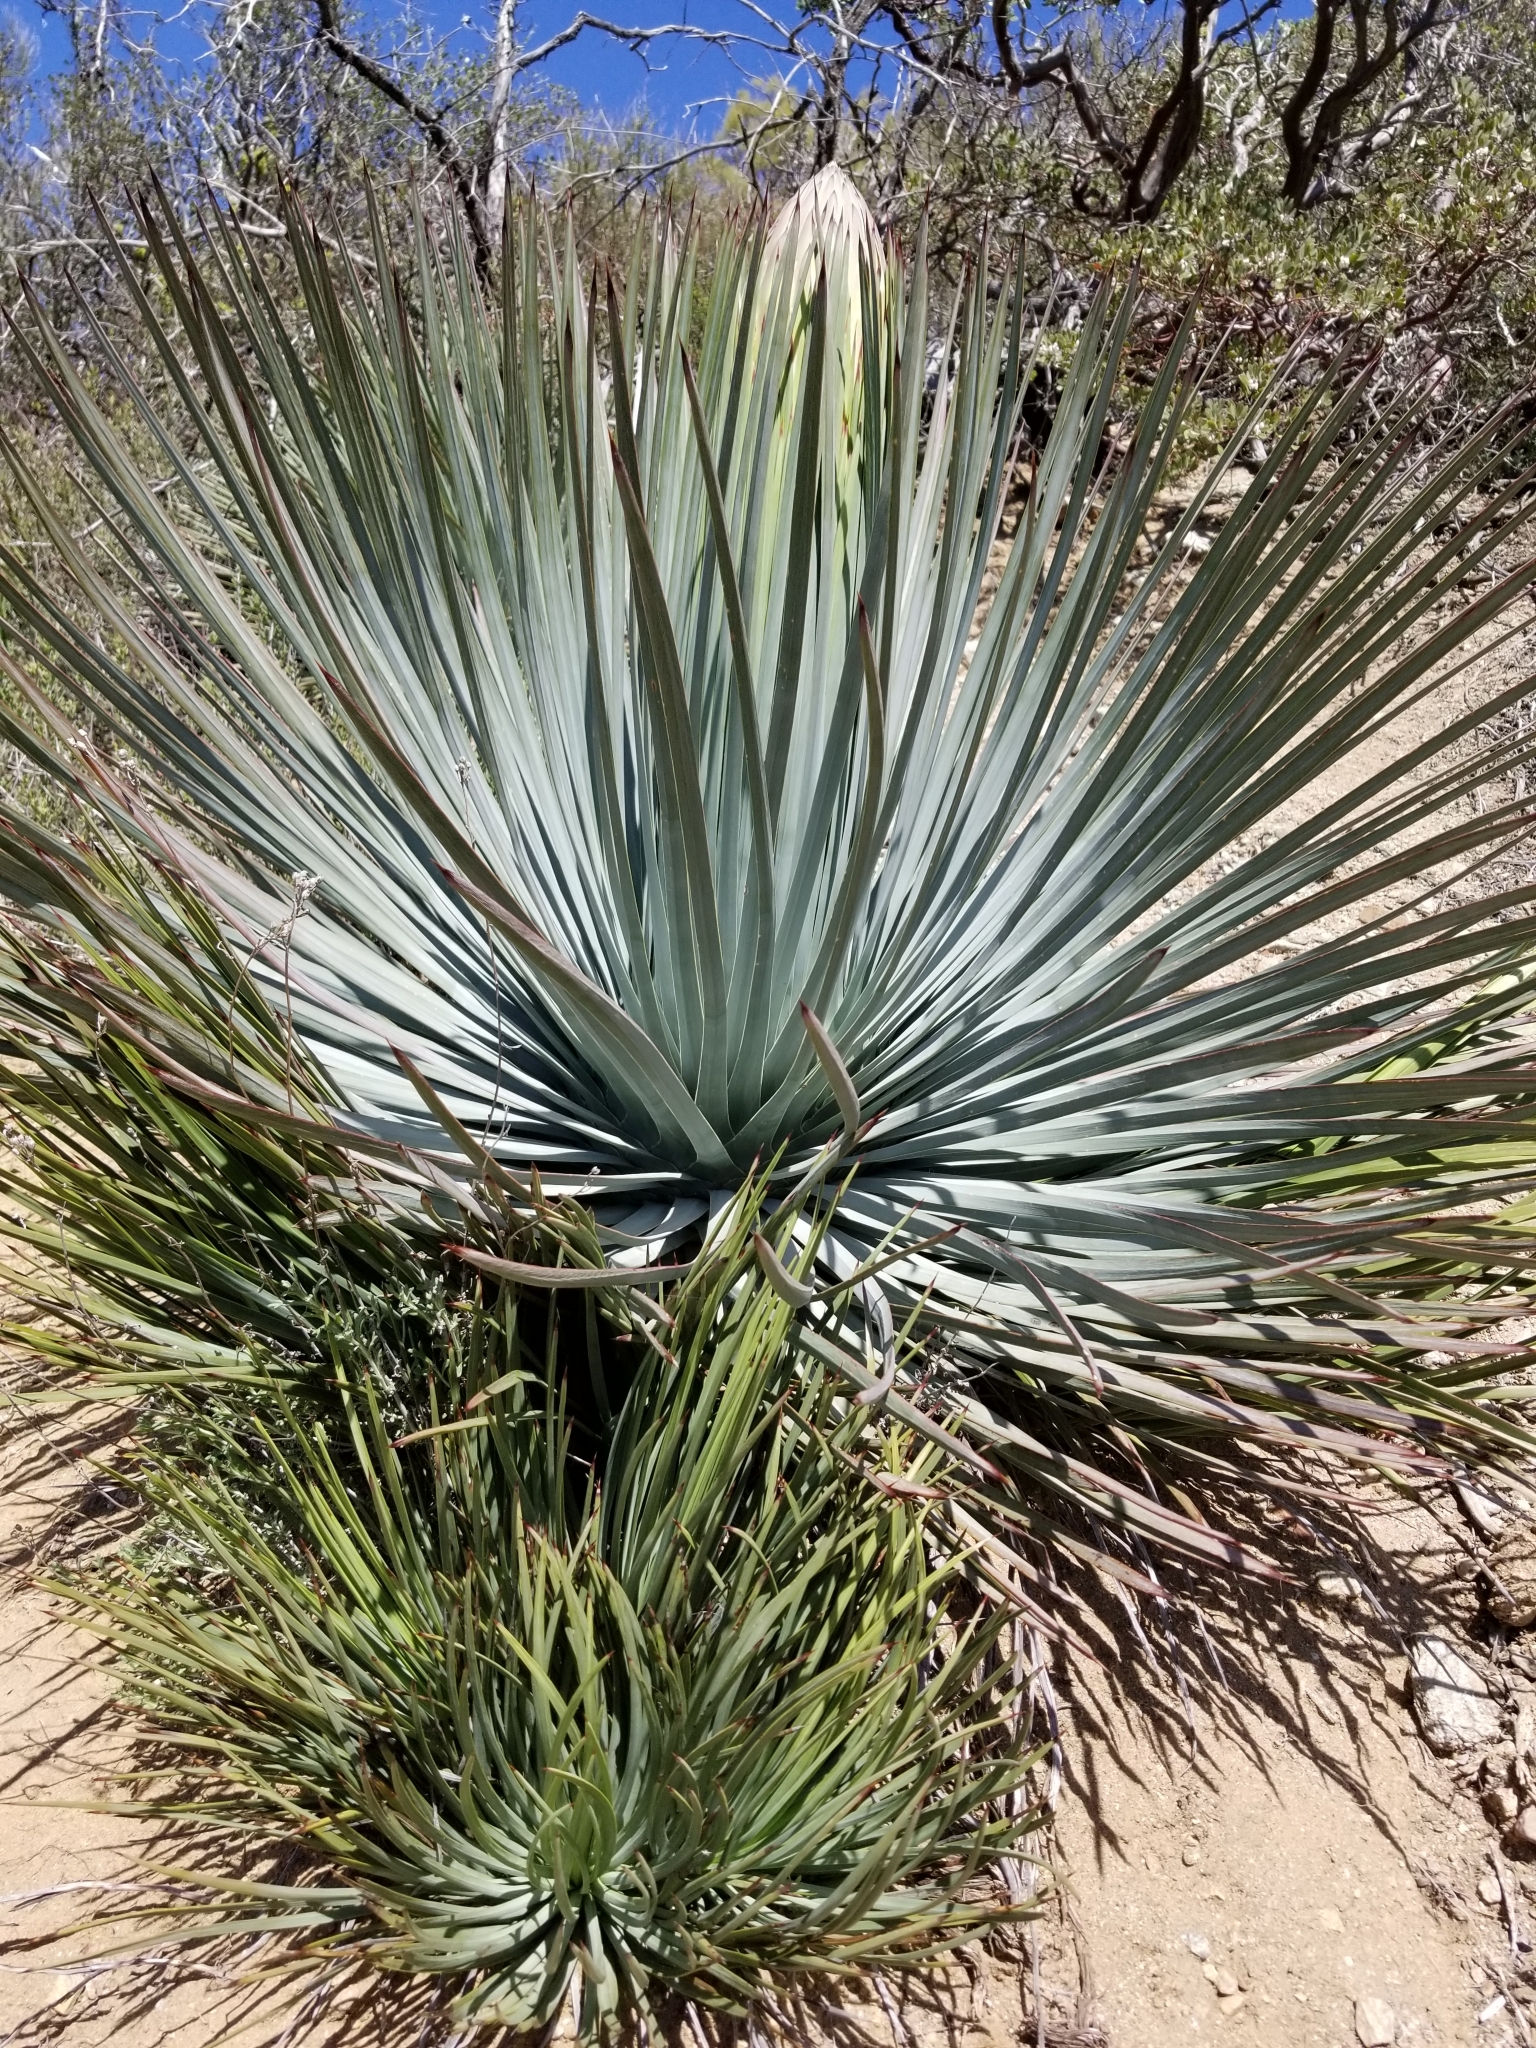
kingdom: Plantae
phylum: Tracheophyta
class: Liliopsida
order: Asparagales
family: Asparagaceae
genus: Hesperoyucca
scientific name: Hesperoyucca whipplei
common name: Our lord's-candle
